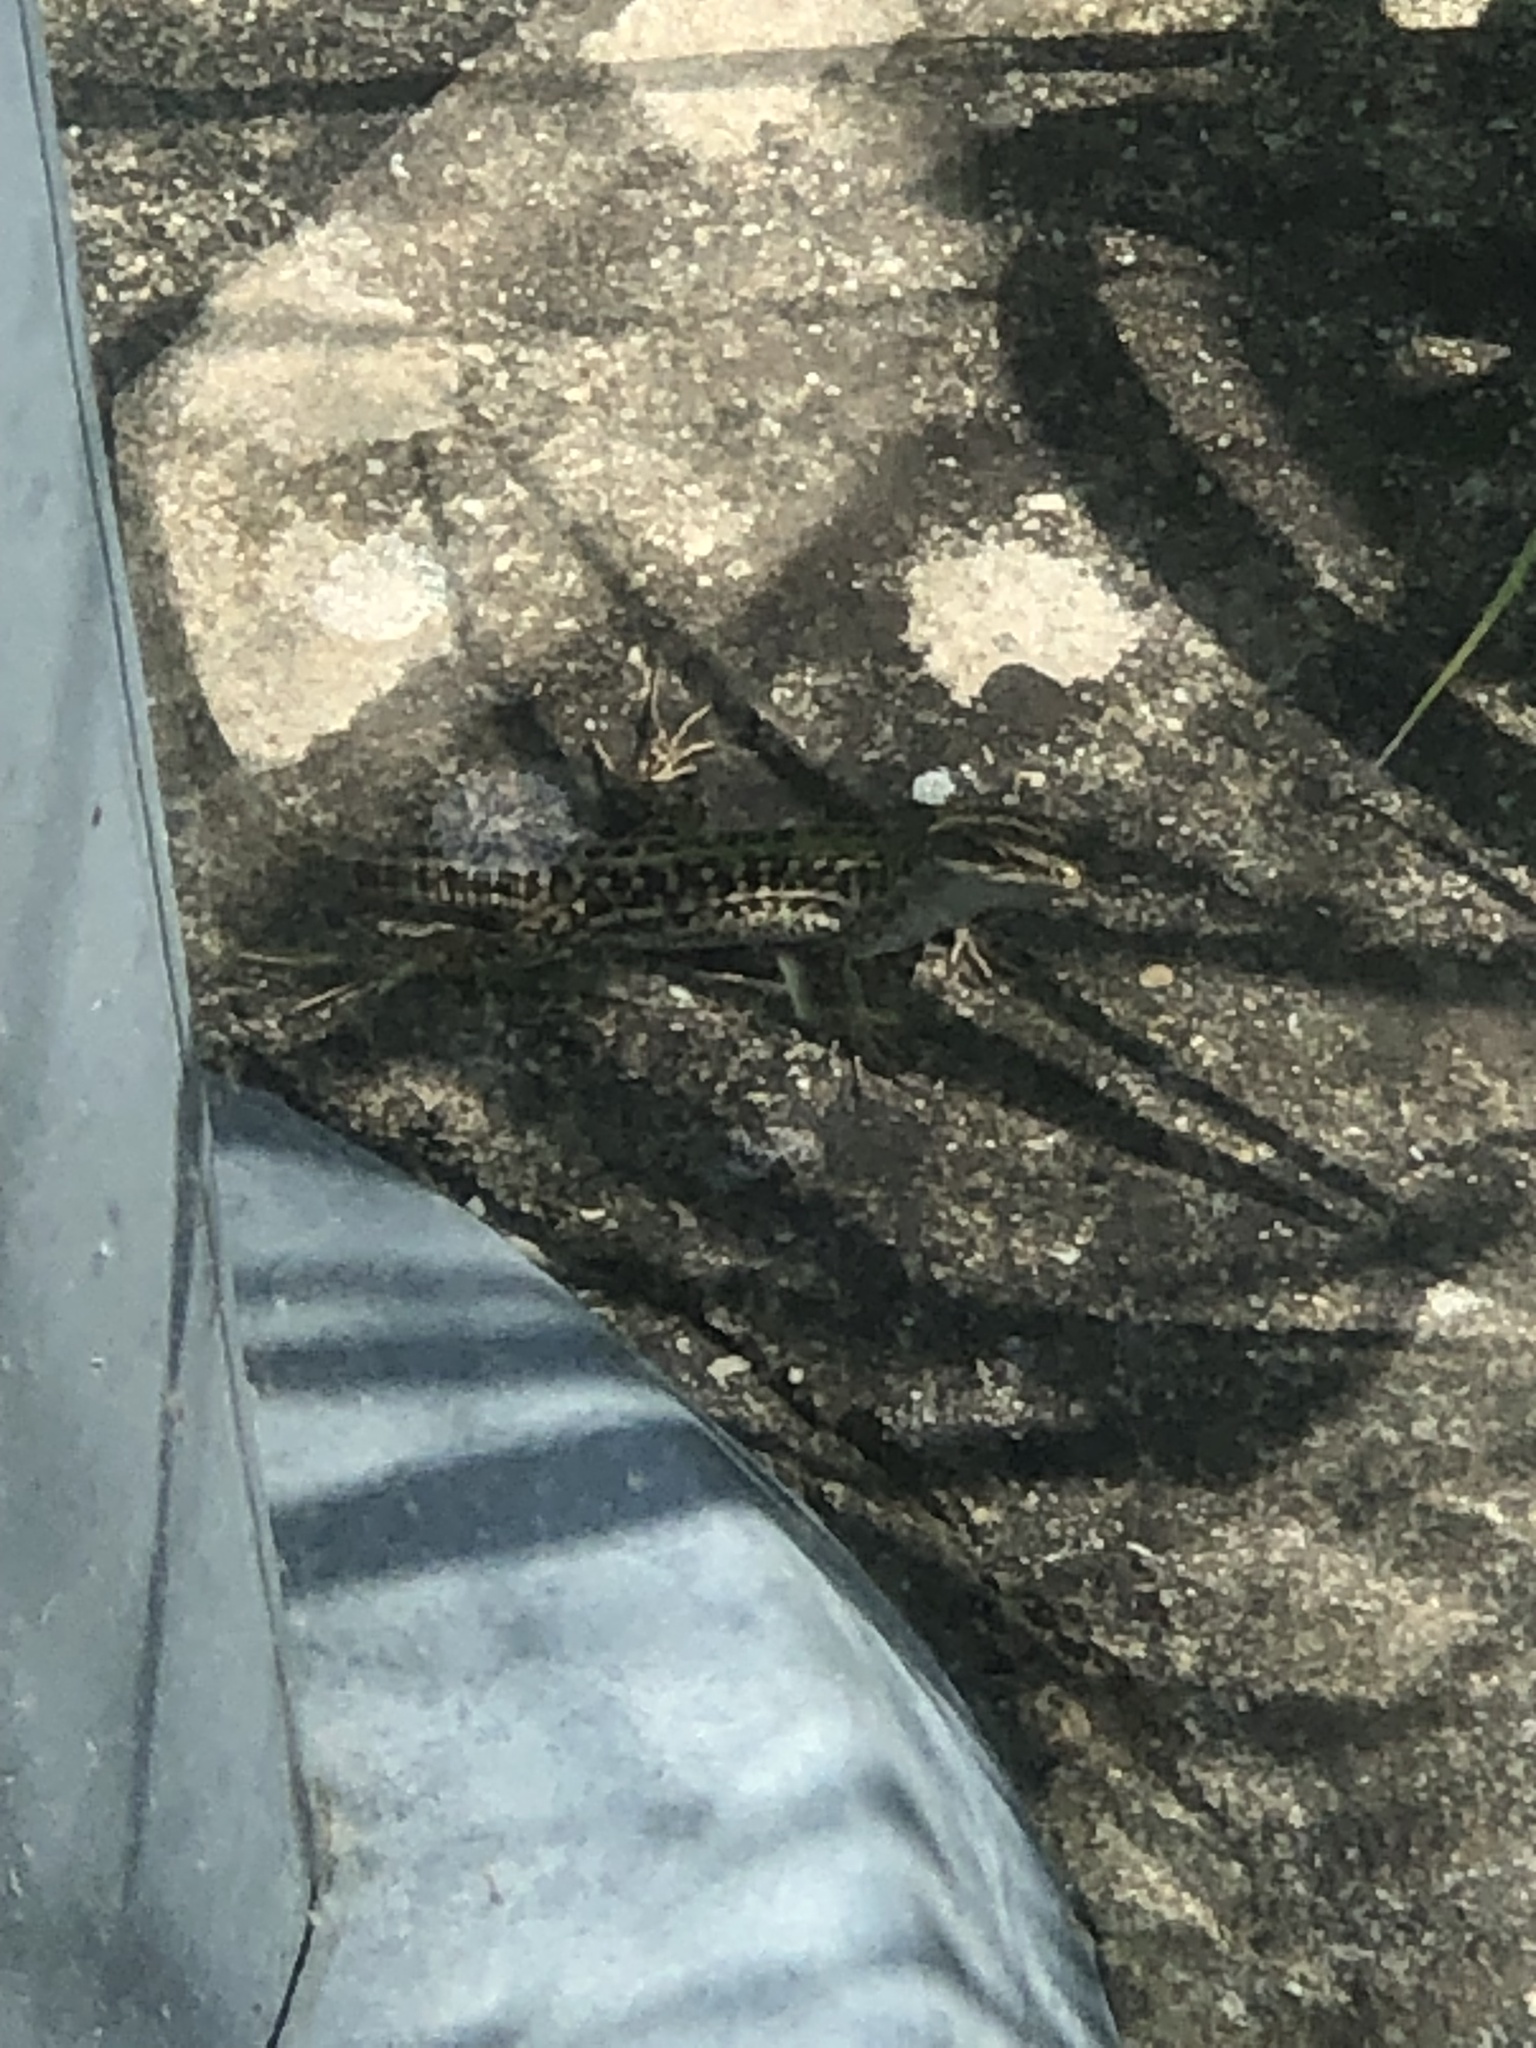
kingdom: Animalia
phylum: Chordata
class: Squamata
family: Lacertidae
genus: Podarcis
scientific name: Podarcis siculus
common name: Italian wall lizard
